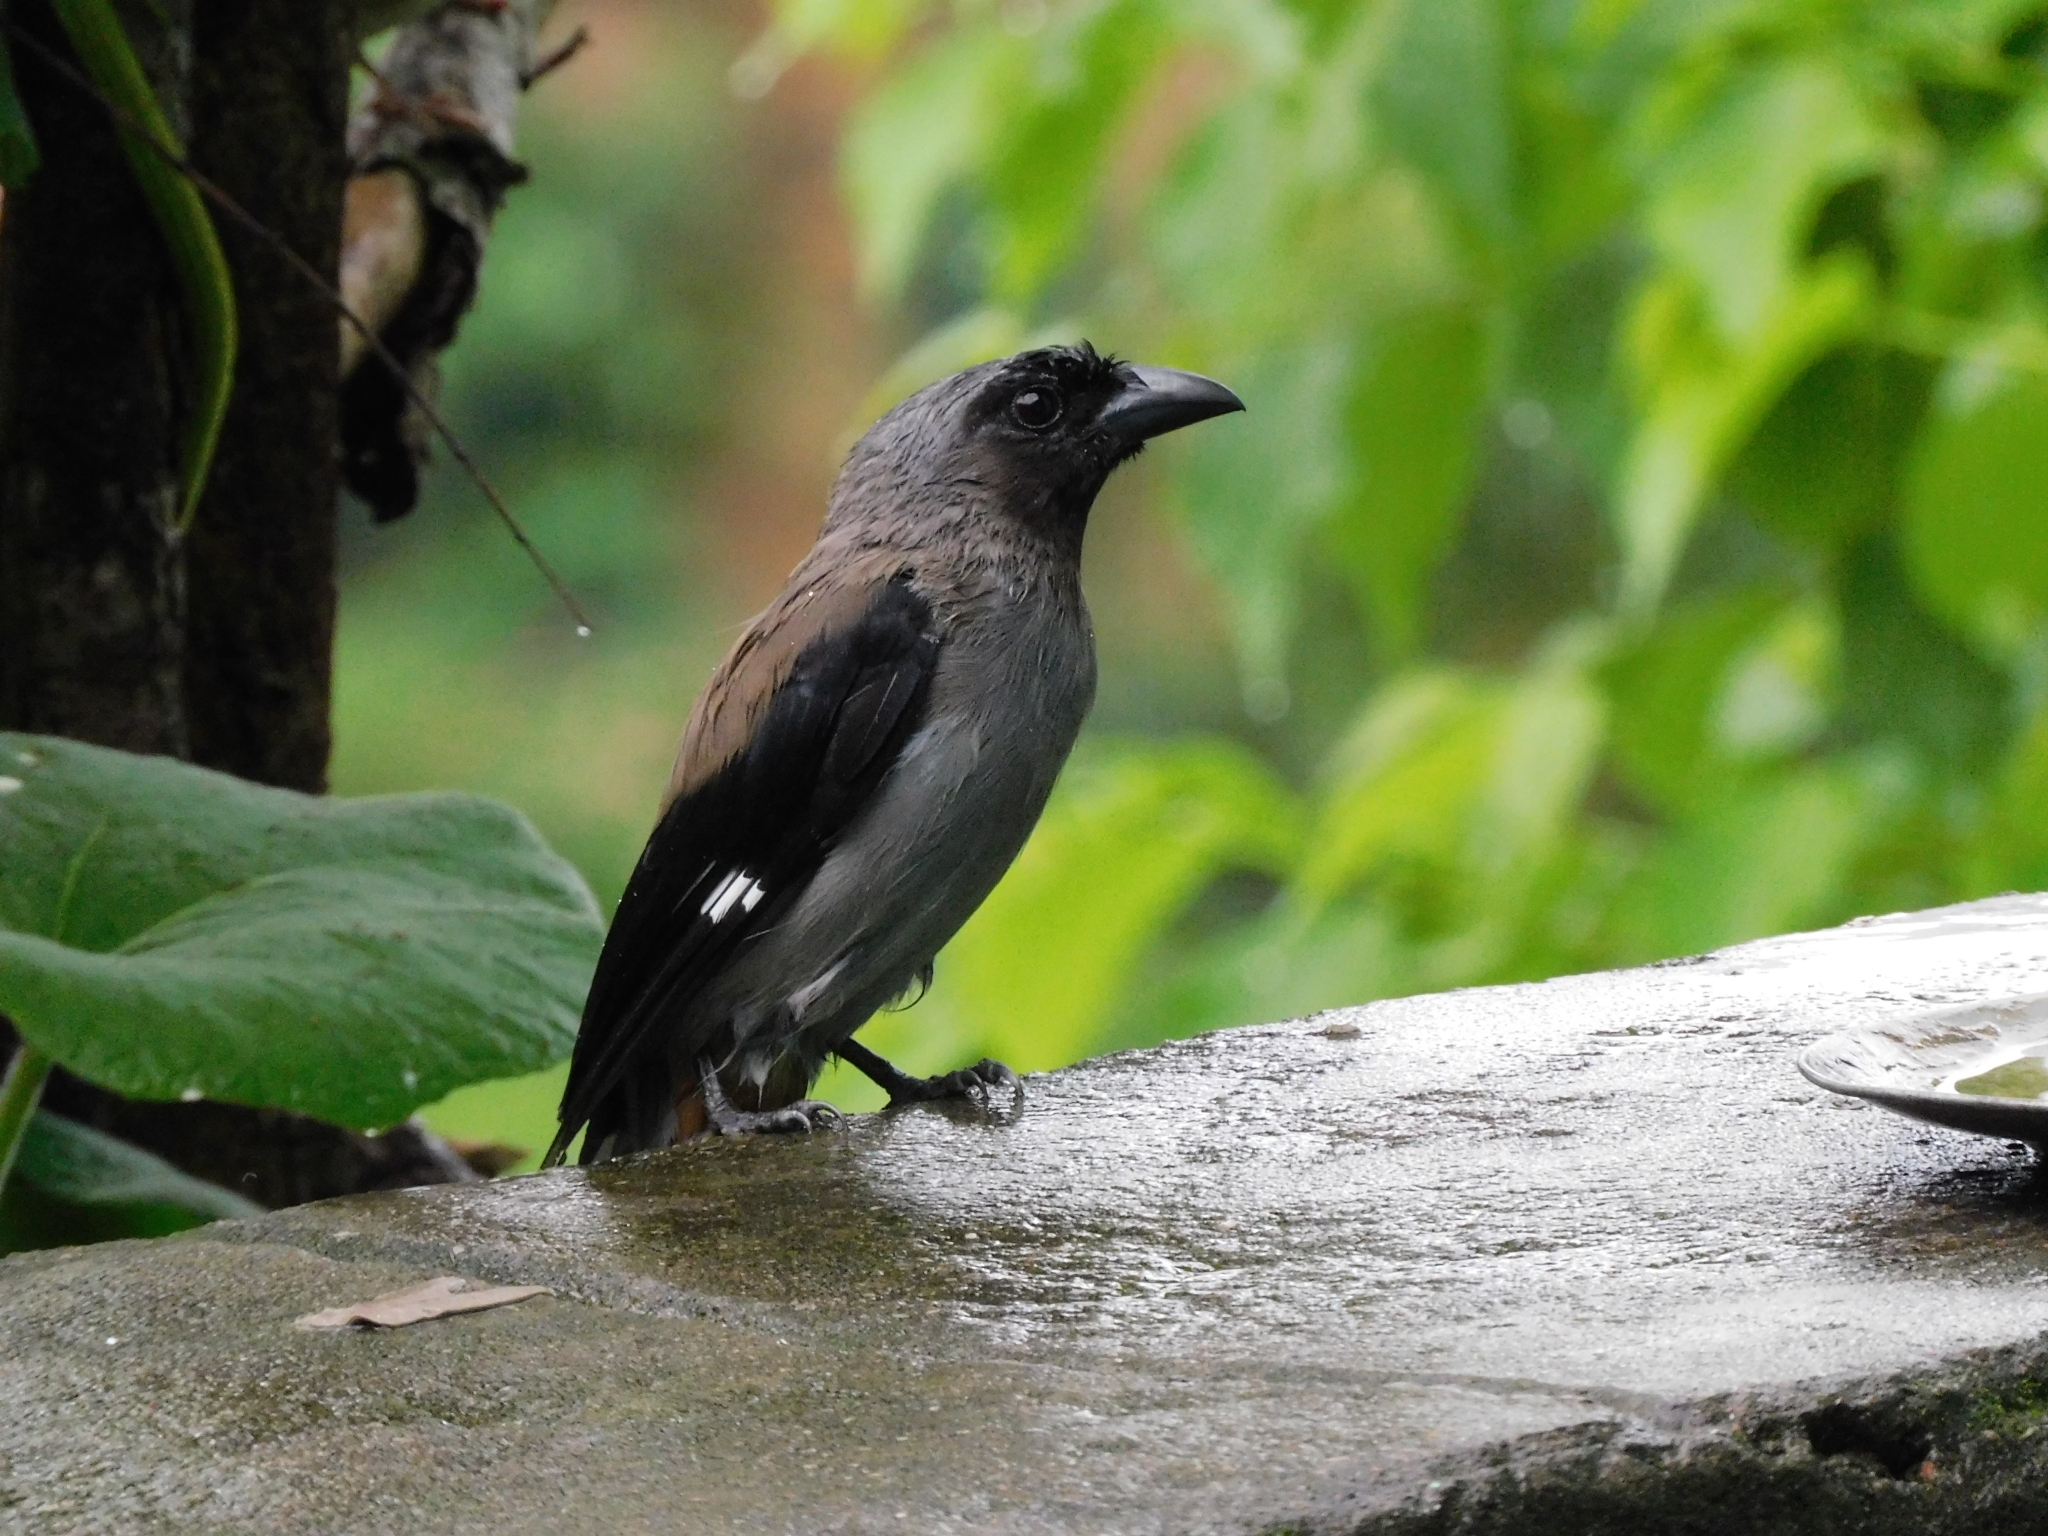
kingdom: Animalia
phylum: Chordata
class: Aves
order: Passeriformes
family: Corvidae
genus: Dendrocitta
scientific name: Dendrocitta formosae
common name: Grey treepie
